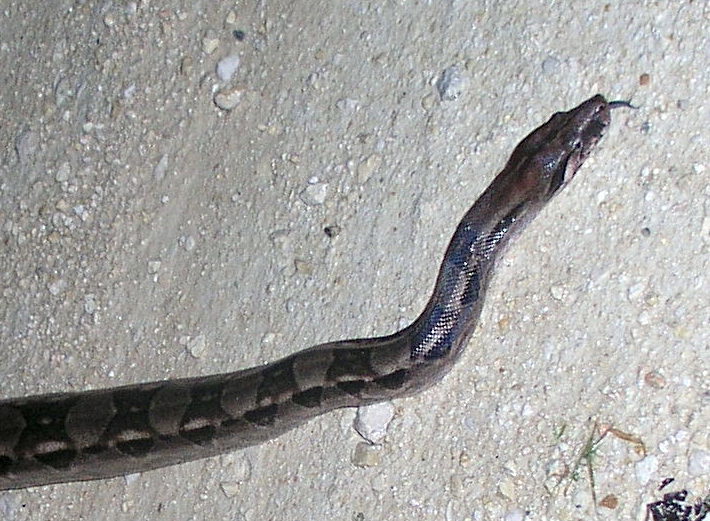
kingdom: Animalia
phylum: Chordata
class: Squamata
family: Boidae
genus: Boa
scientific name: Boa imperator
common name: Central american boa
